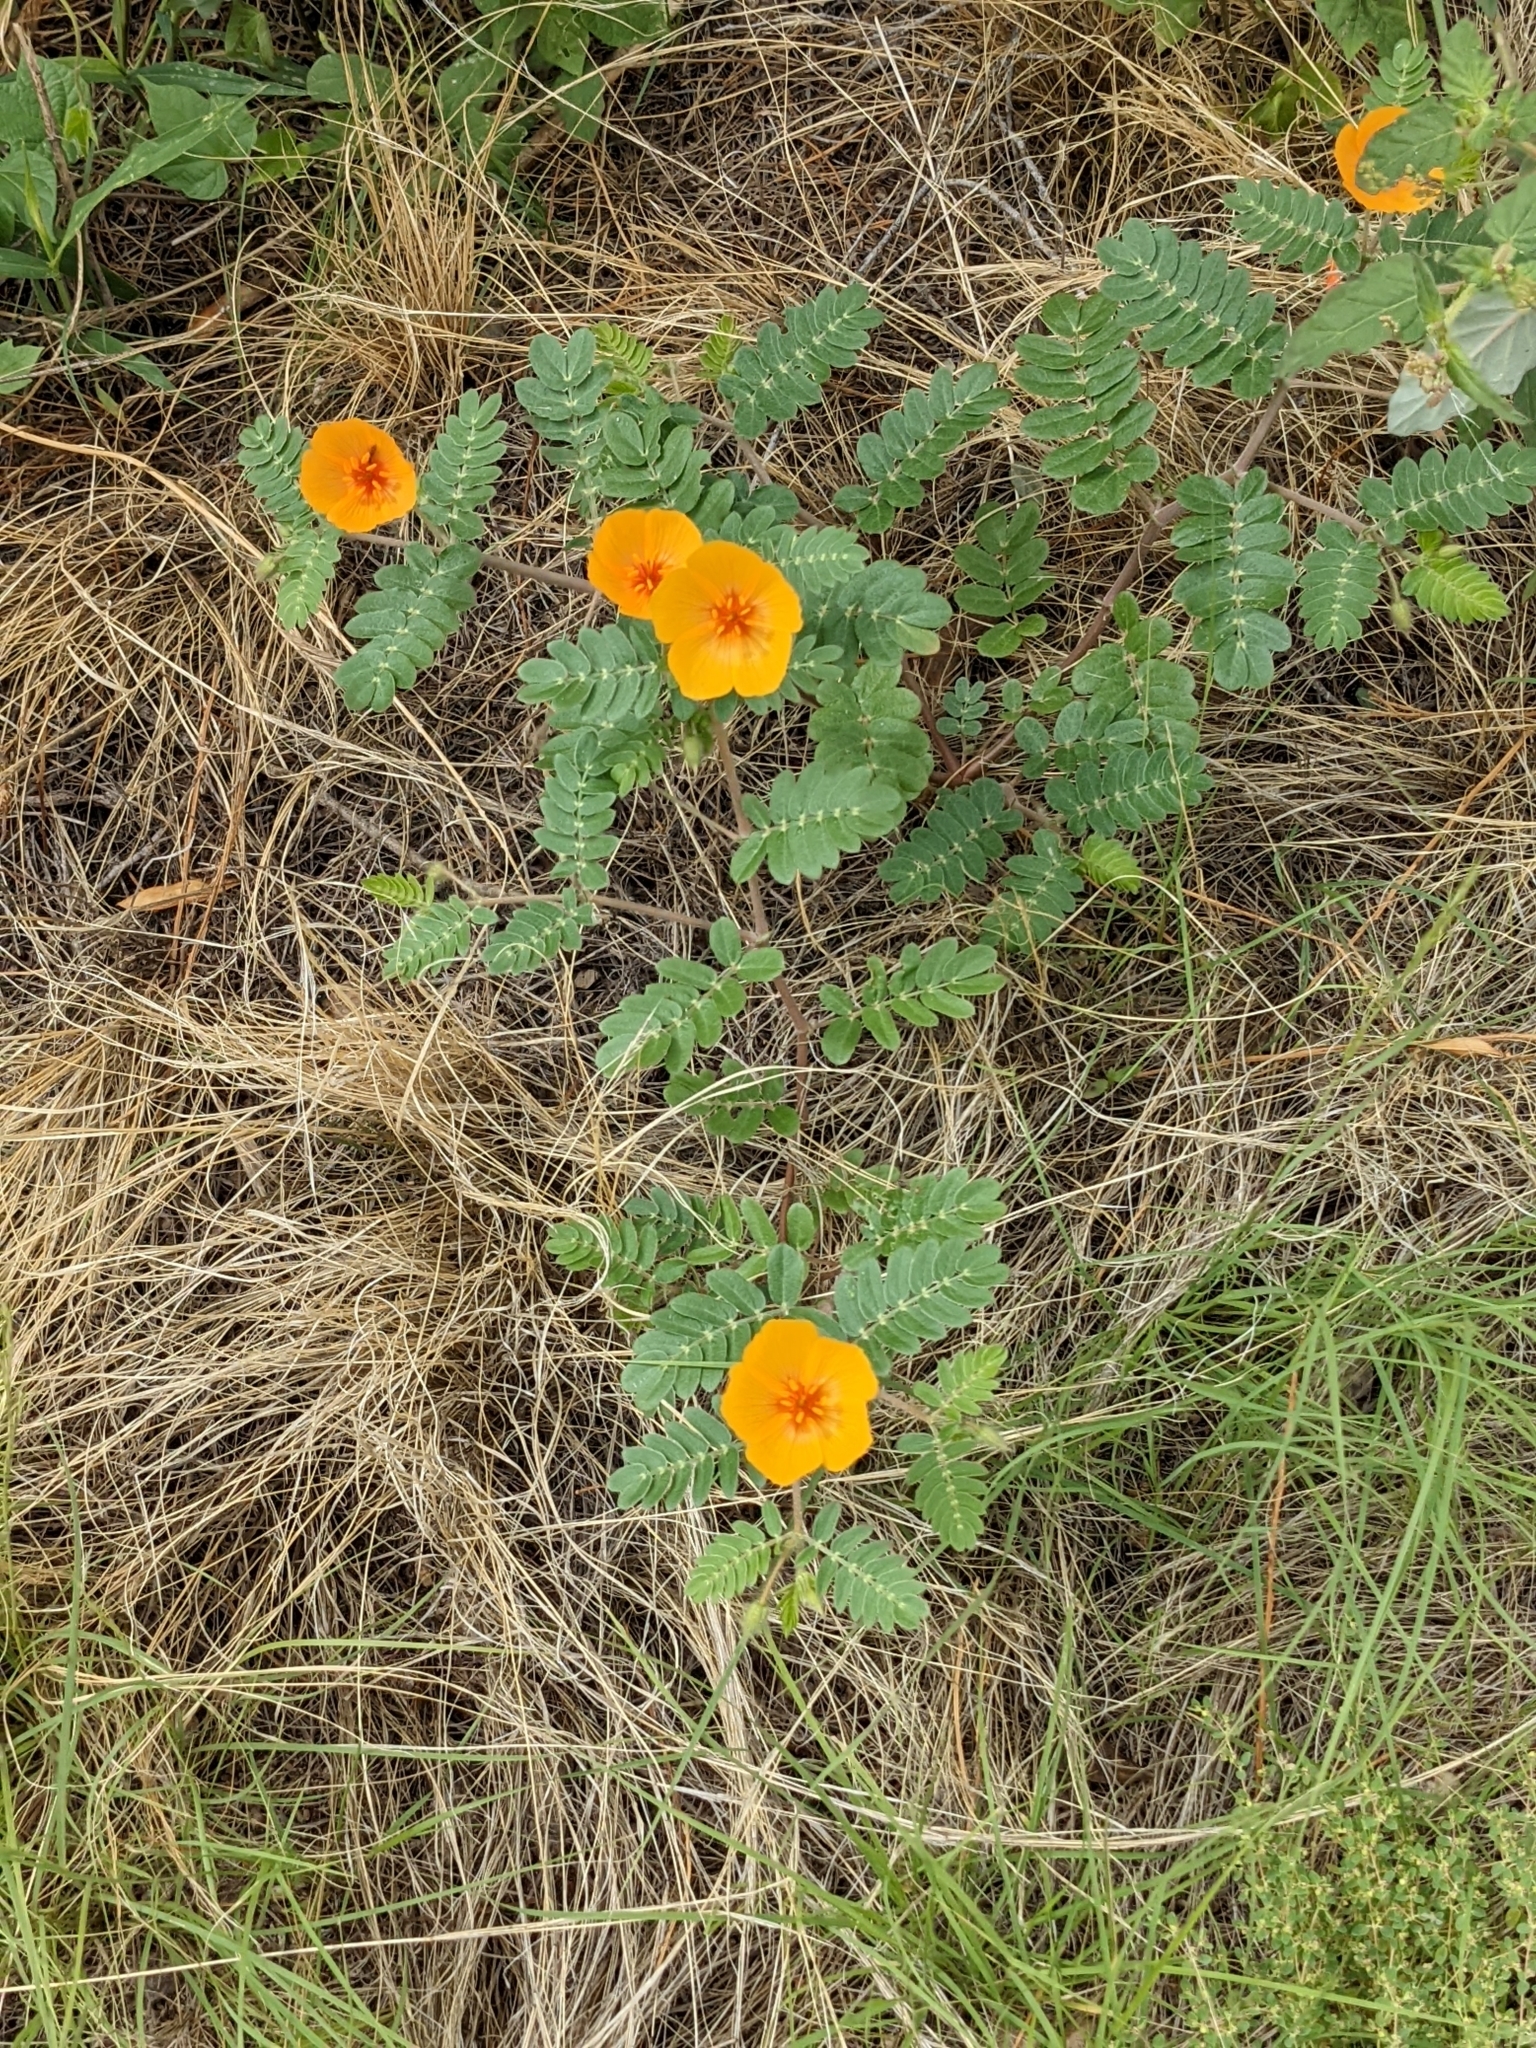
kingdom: Plantae
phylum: Tracheophyta
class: Magnoliopsida
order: Zygophyllales
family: Zygophyllaceae
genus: Kallstroemia
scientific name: Kallstroemia grandiflora
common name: Arizona-poppy
